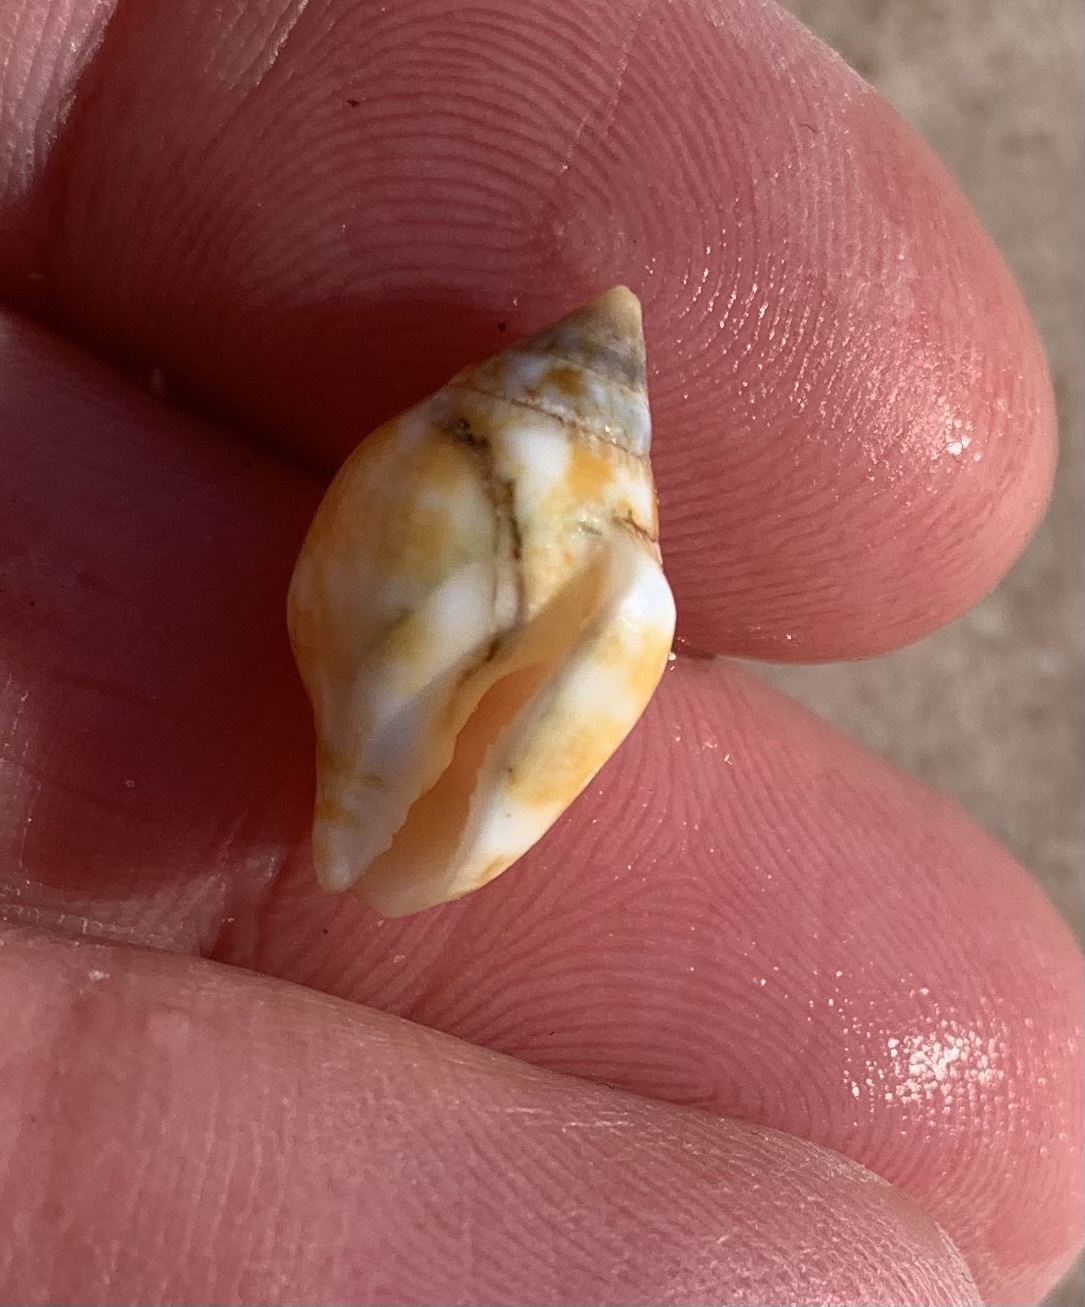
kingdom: Animalia
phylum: Mollusca
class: Gastropoda
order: Neogastropoda
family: Columbellidae
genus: Columbella
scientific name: Columbella rustica
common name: Rustic dove shell
